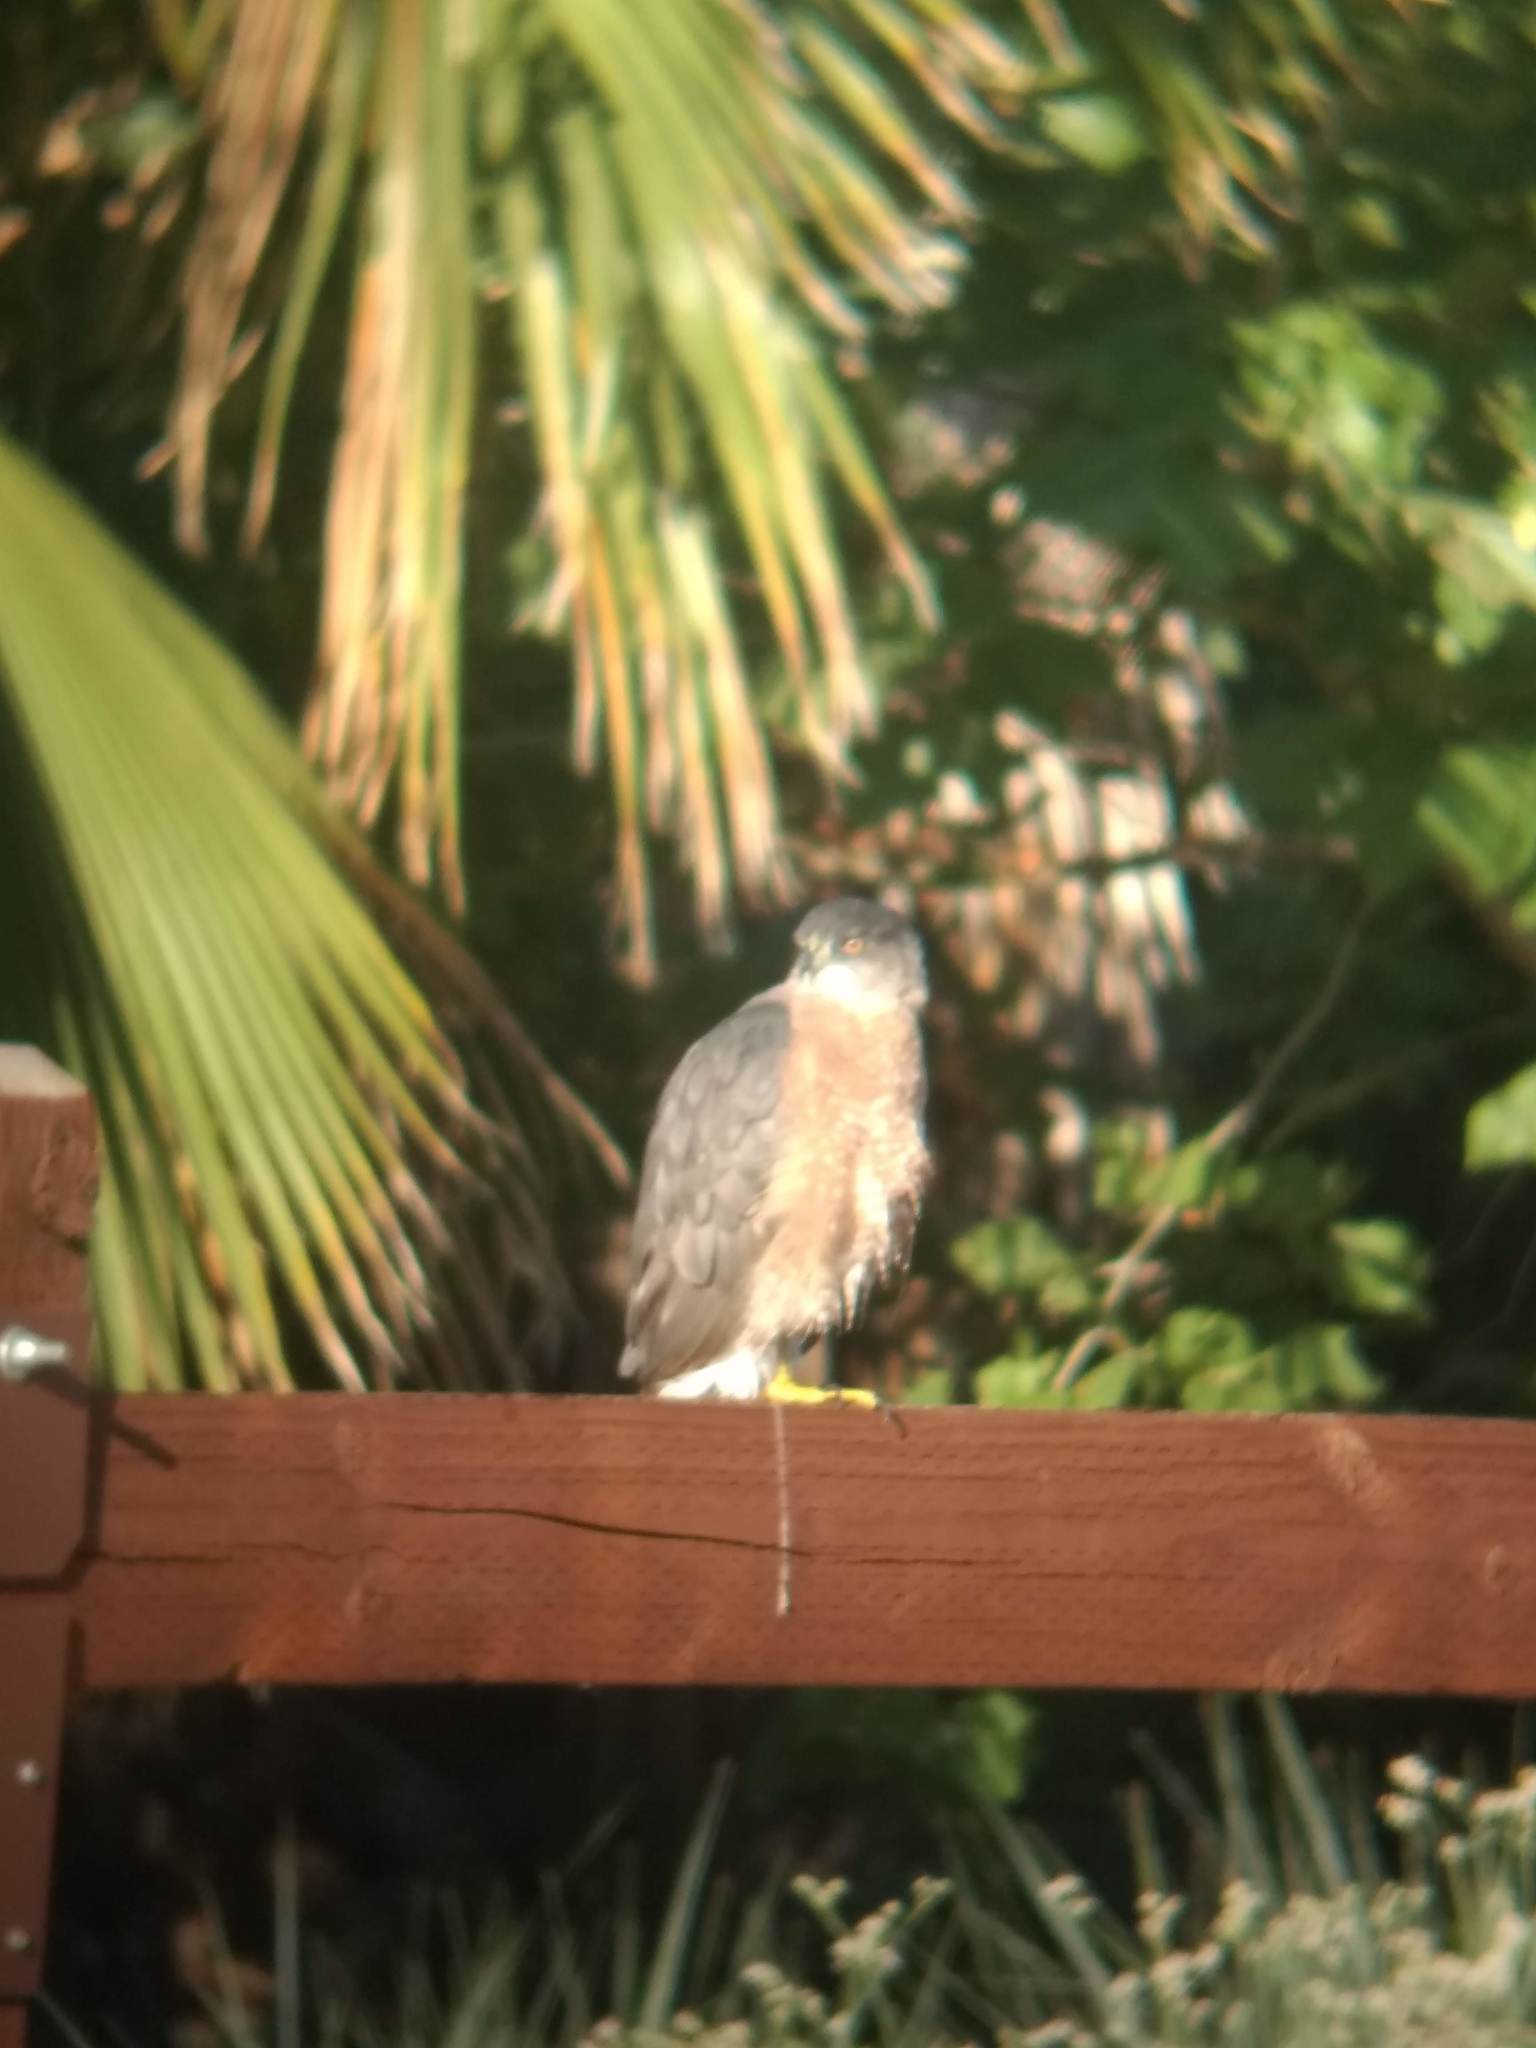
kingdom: Animalia
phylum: Chordata
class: Aves
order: Accipitriformes
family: Accipitridae
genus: Accipiter
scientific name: Accipiter cooperii
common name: Cooper's hawk
